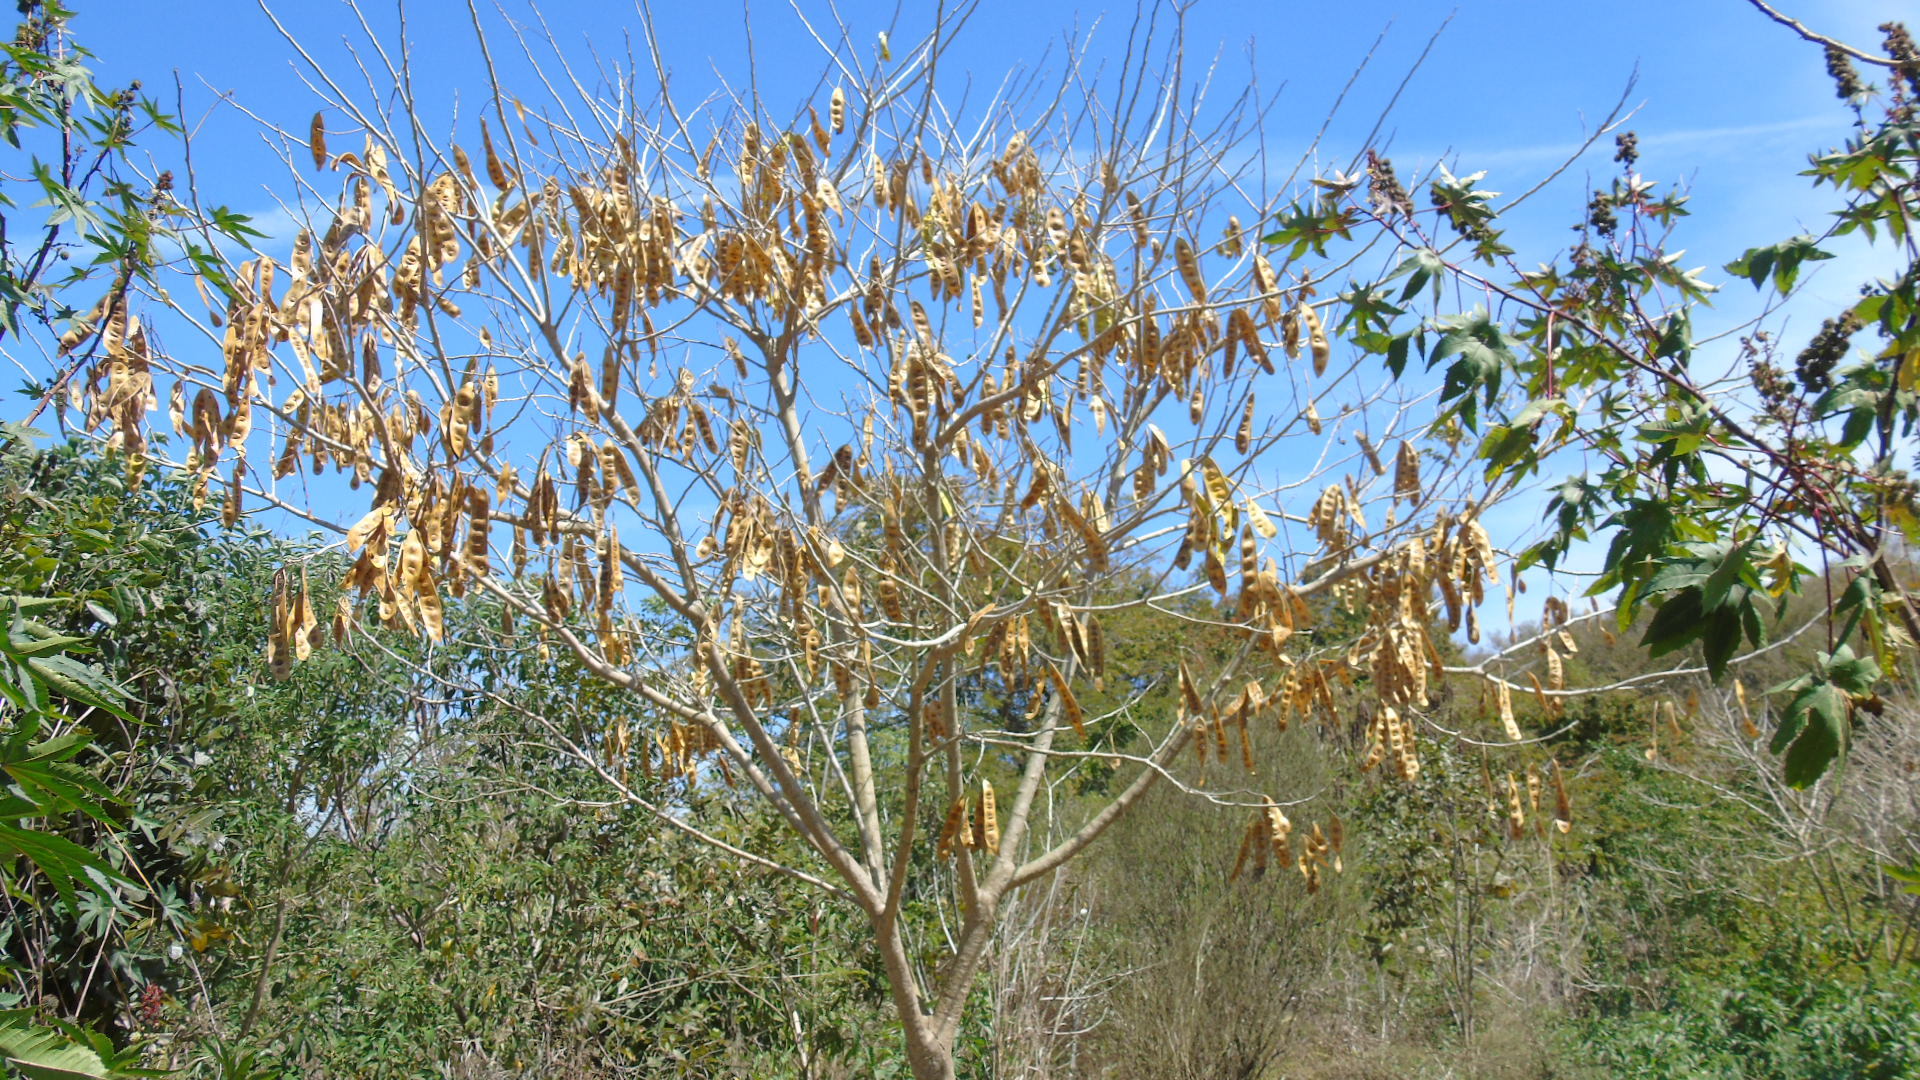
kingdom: Plantae
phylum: Tracheophyta
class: Magnoliopsida
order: Fabales
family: Fabaceae
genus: Albizia
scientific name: Albizia lebbeck
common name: Woman's tongue
